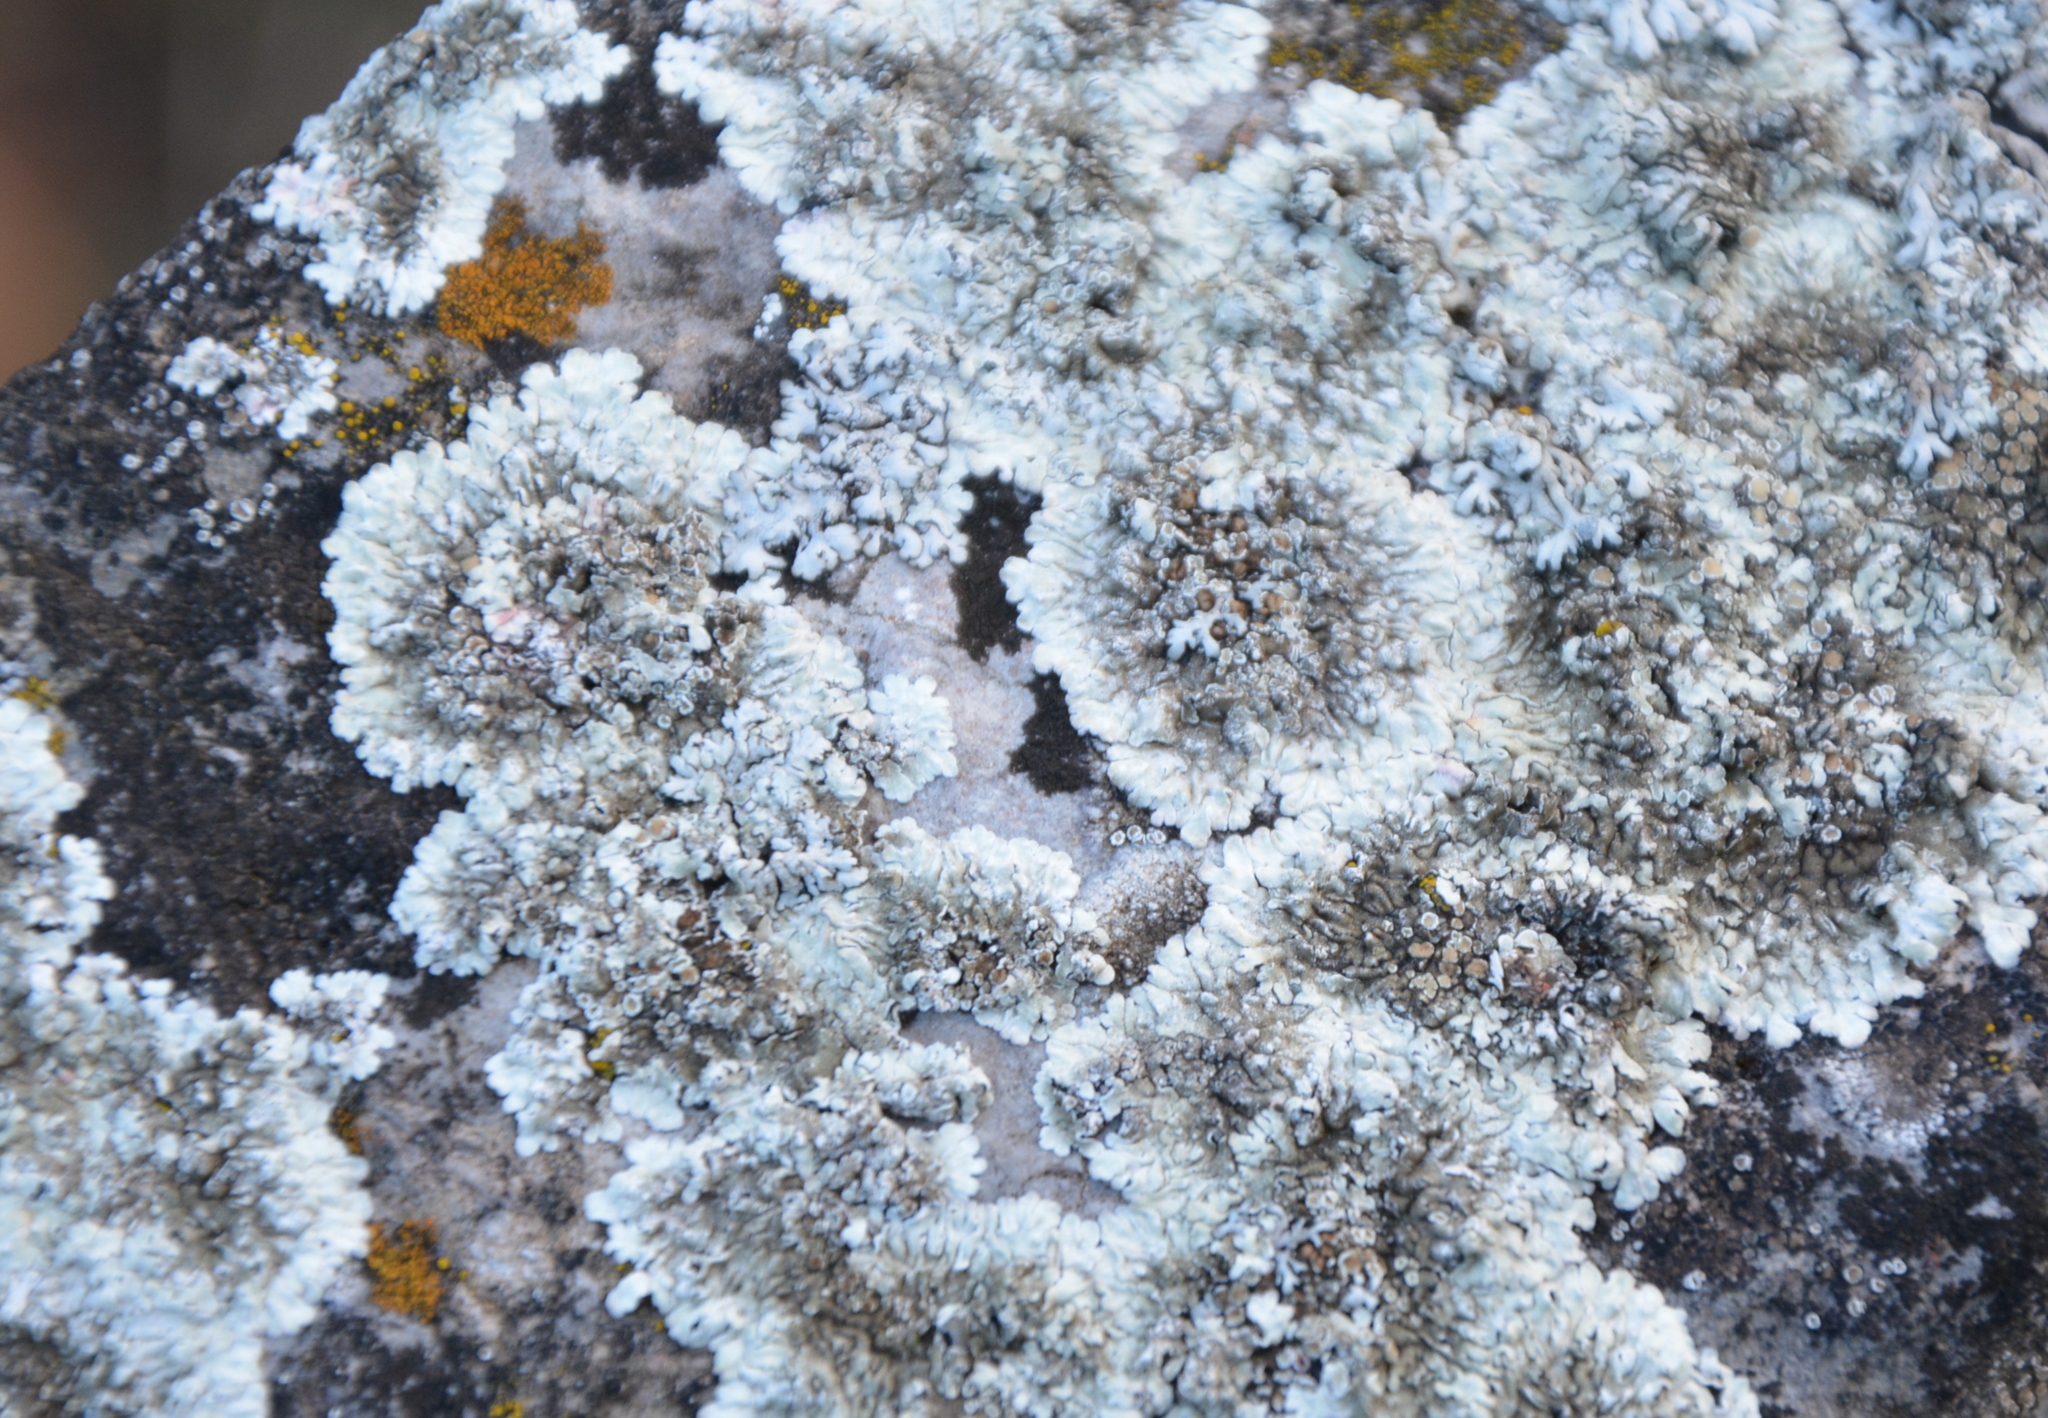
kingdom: Fungi
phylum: Ascomycota
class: Lecanoromycetes
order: Lecanorales
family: Lecanoraceae
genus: Protoparmeliopsis
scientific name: Protoparmeliopsis muralis
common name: Stonewall rim lichen
